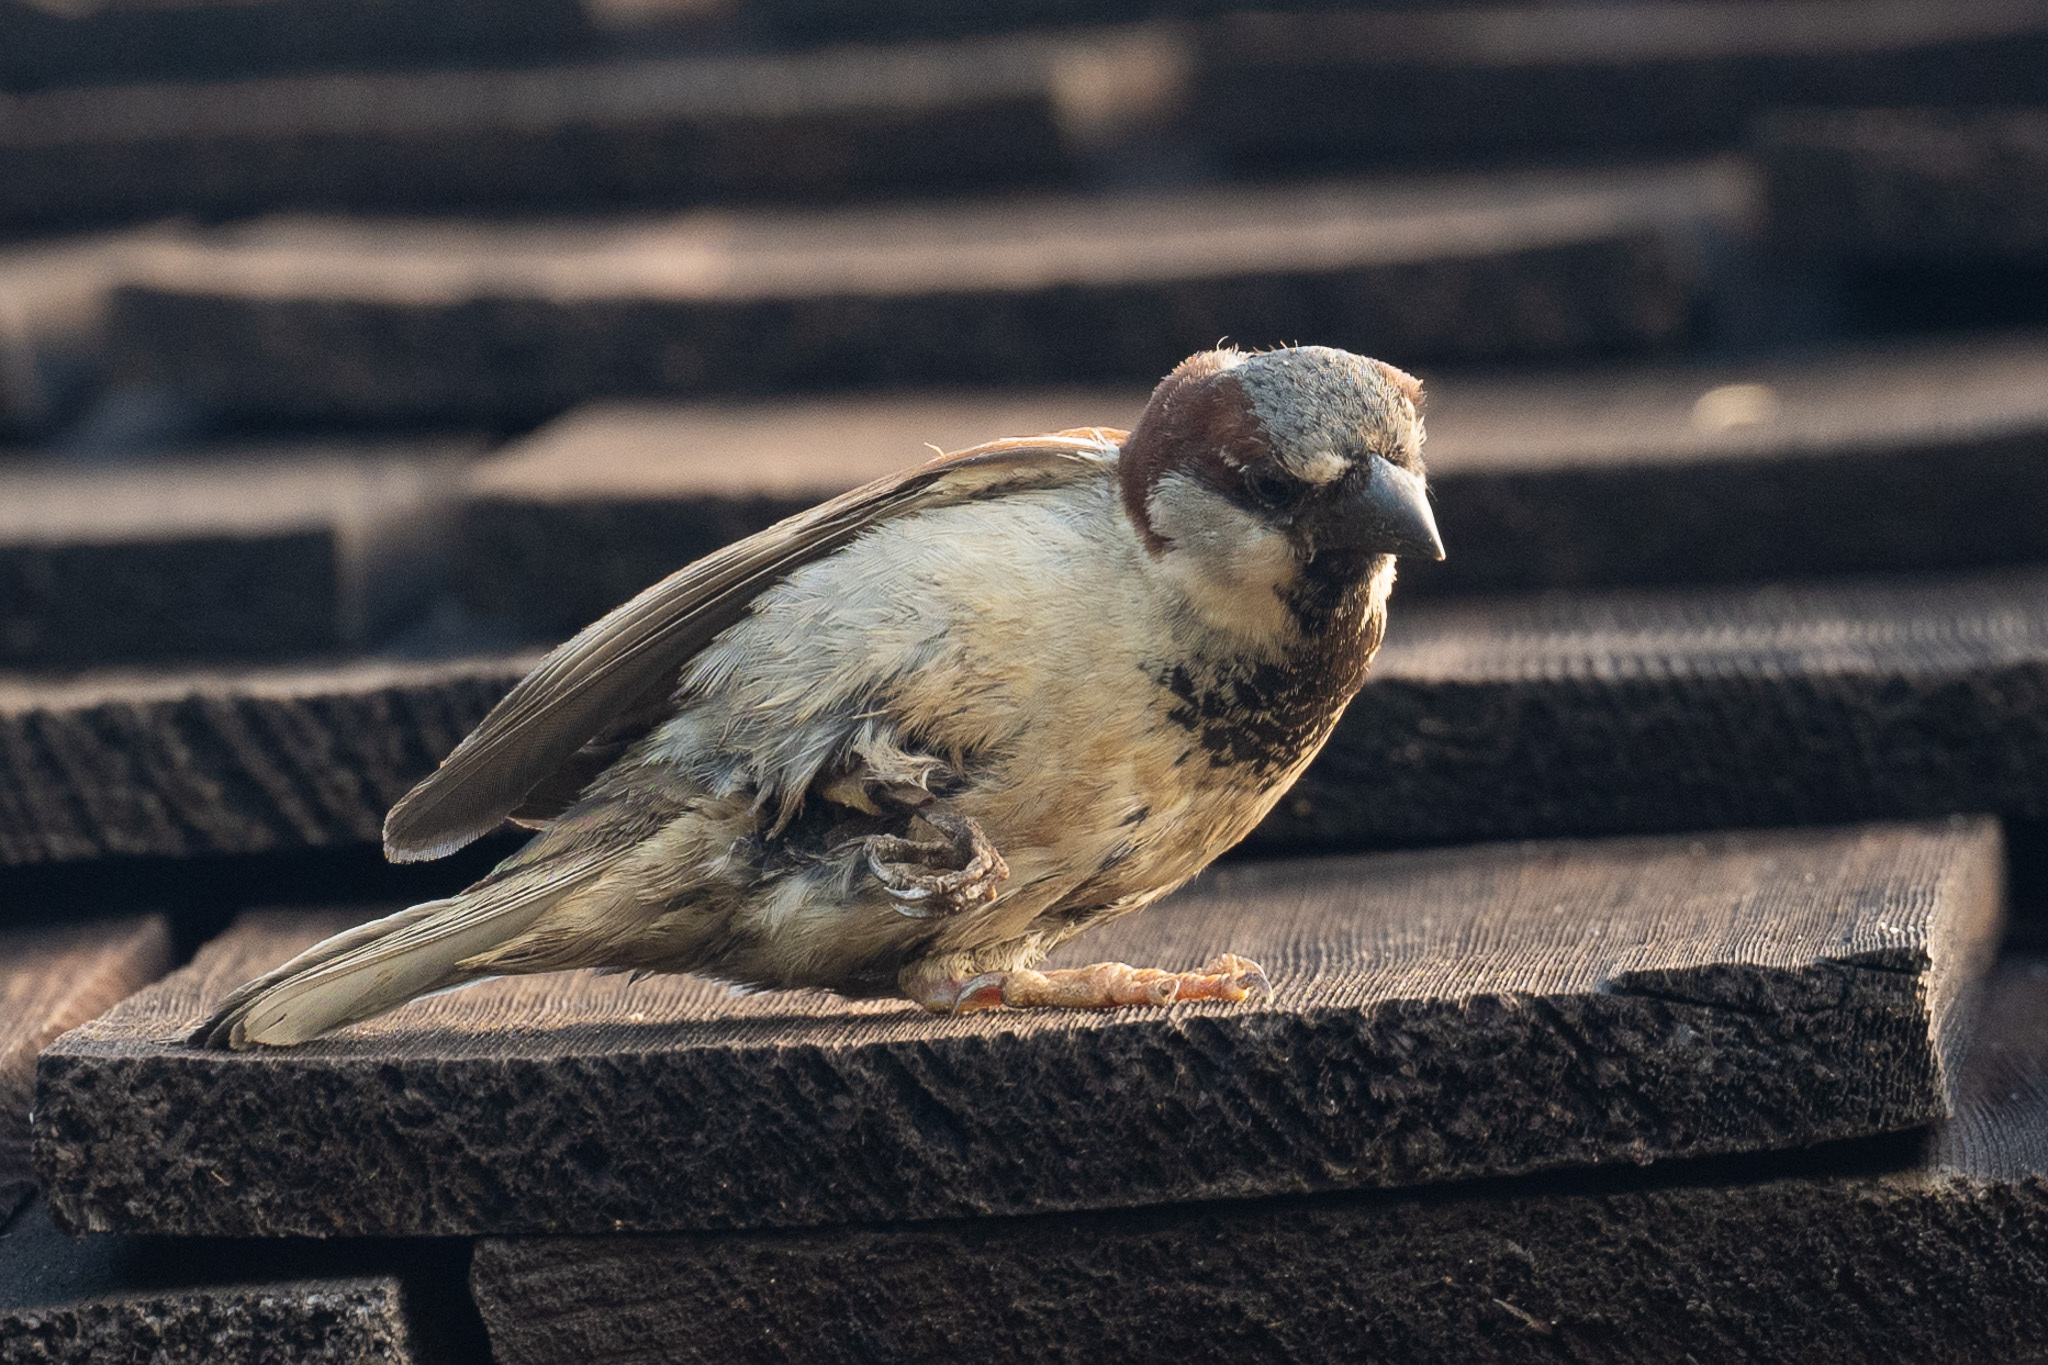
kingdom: Animalia
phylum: Chordata
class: Aves
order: Passeriformes
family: Passeridae
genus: Passer
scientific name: Passer domesticus
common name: House sparrow
